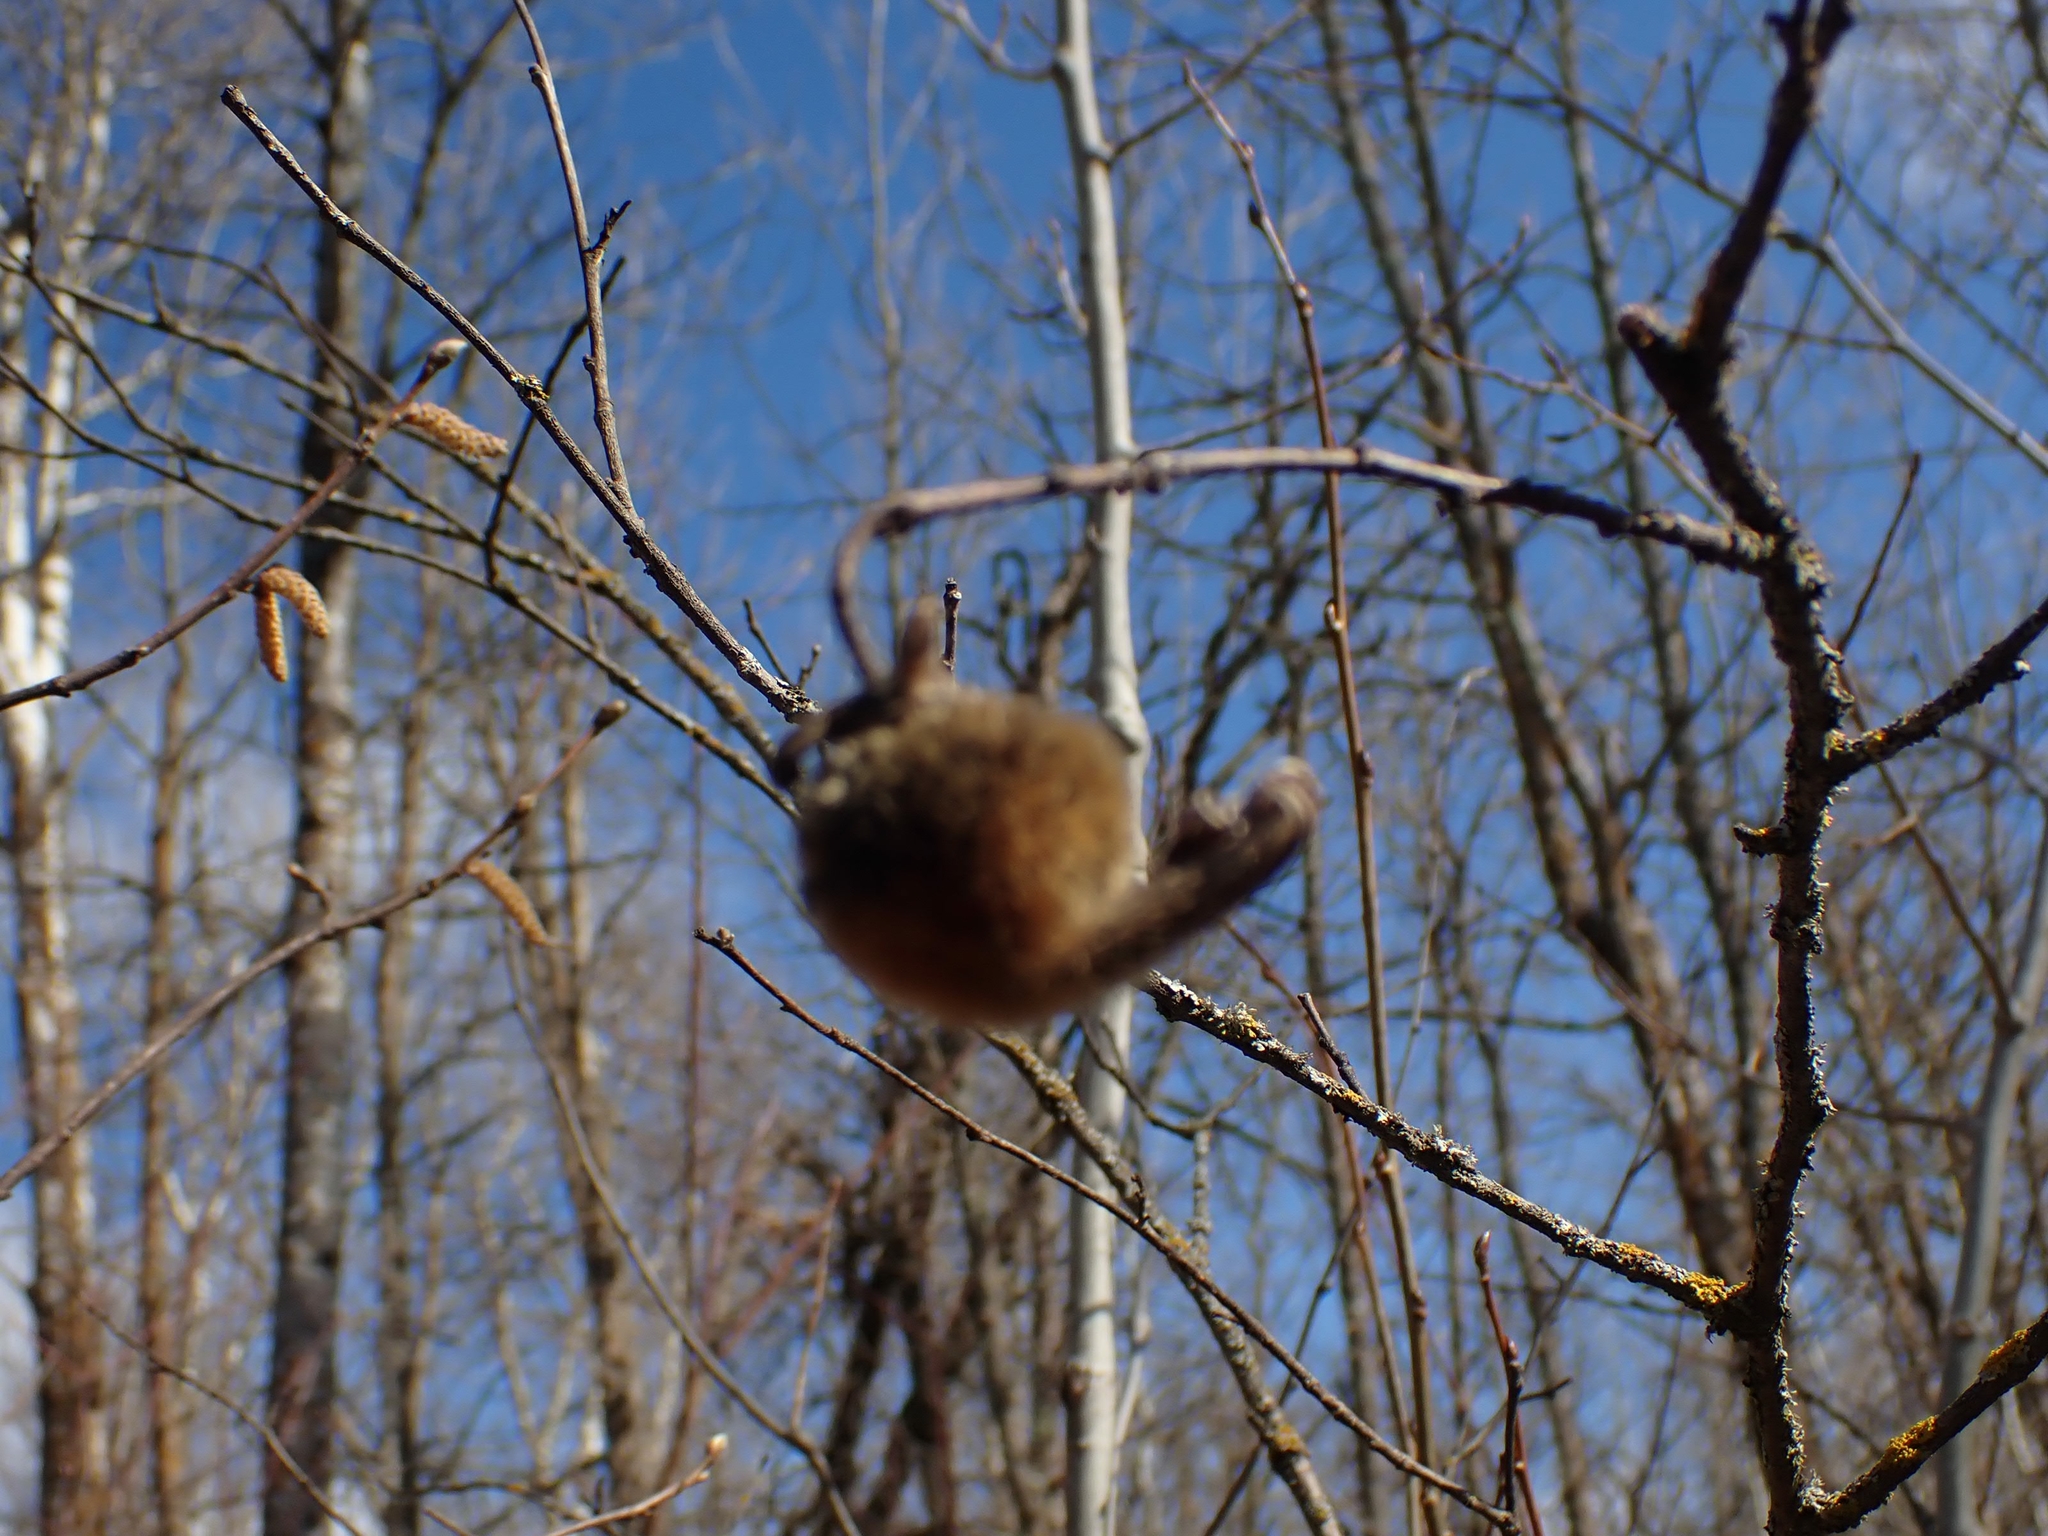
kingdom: Plantae
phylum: Tracheophyta
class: Magnoliopsida
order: Fagales
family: Betulaceae
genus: Corylus
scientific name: Corylus cornuta
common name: Beaked hazel
